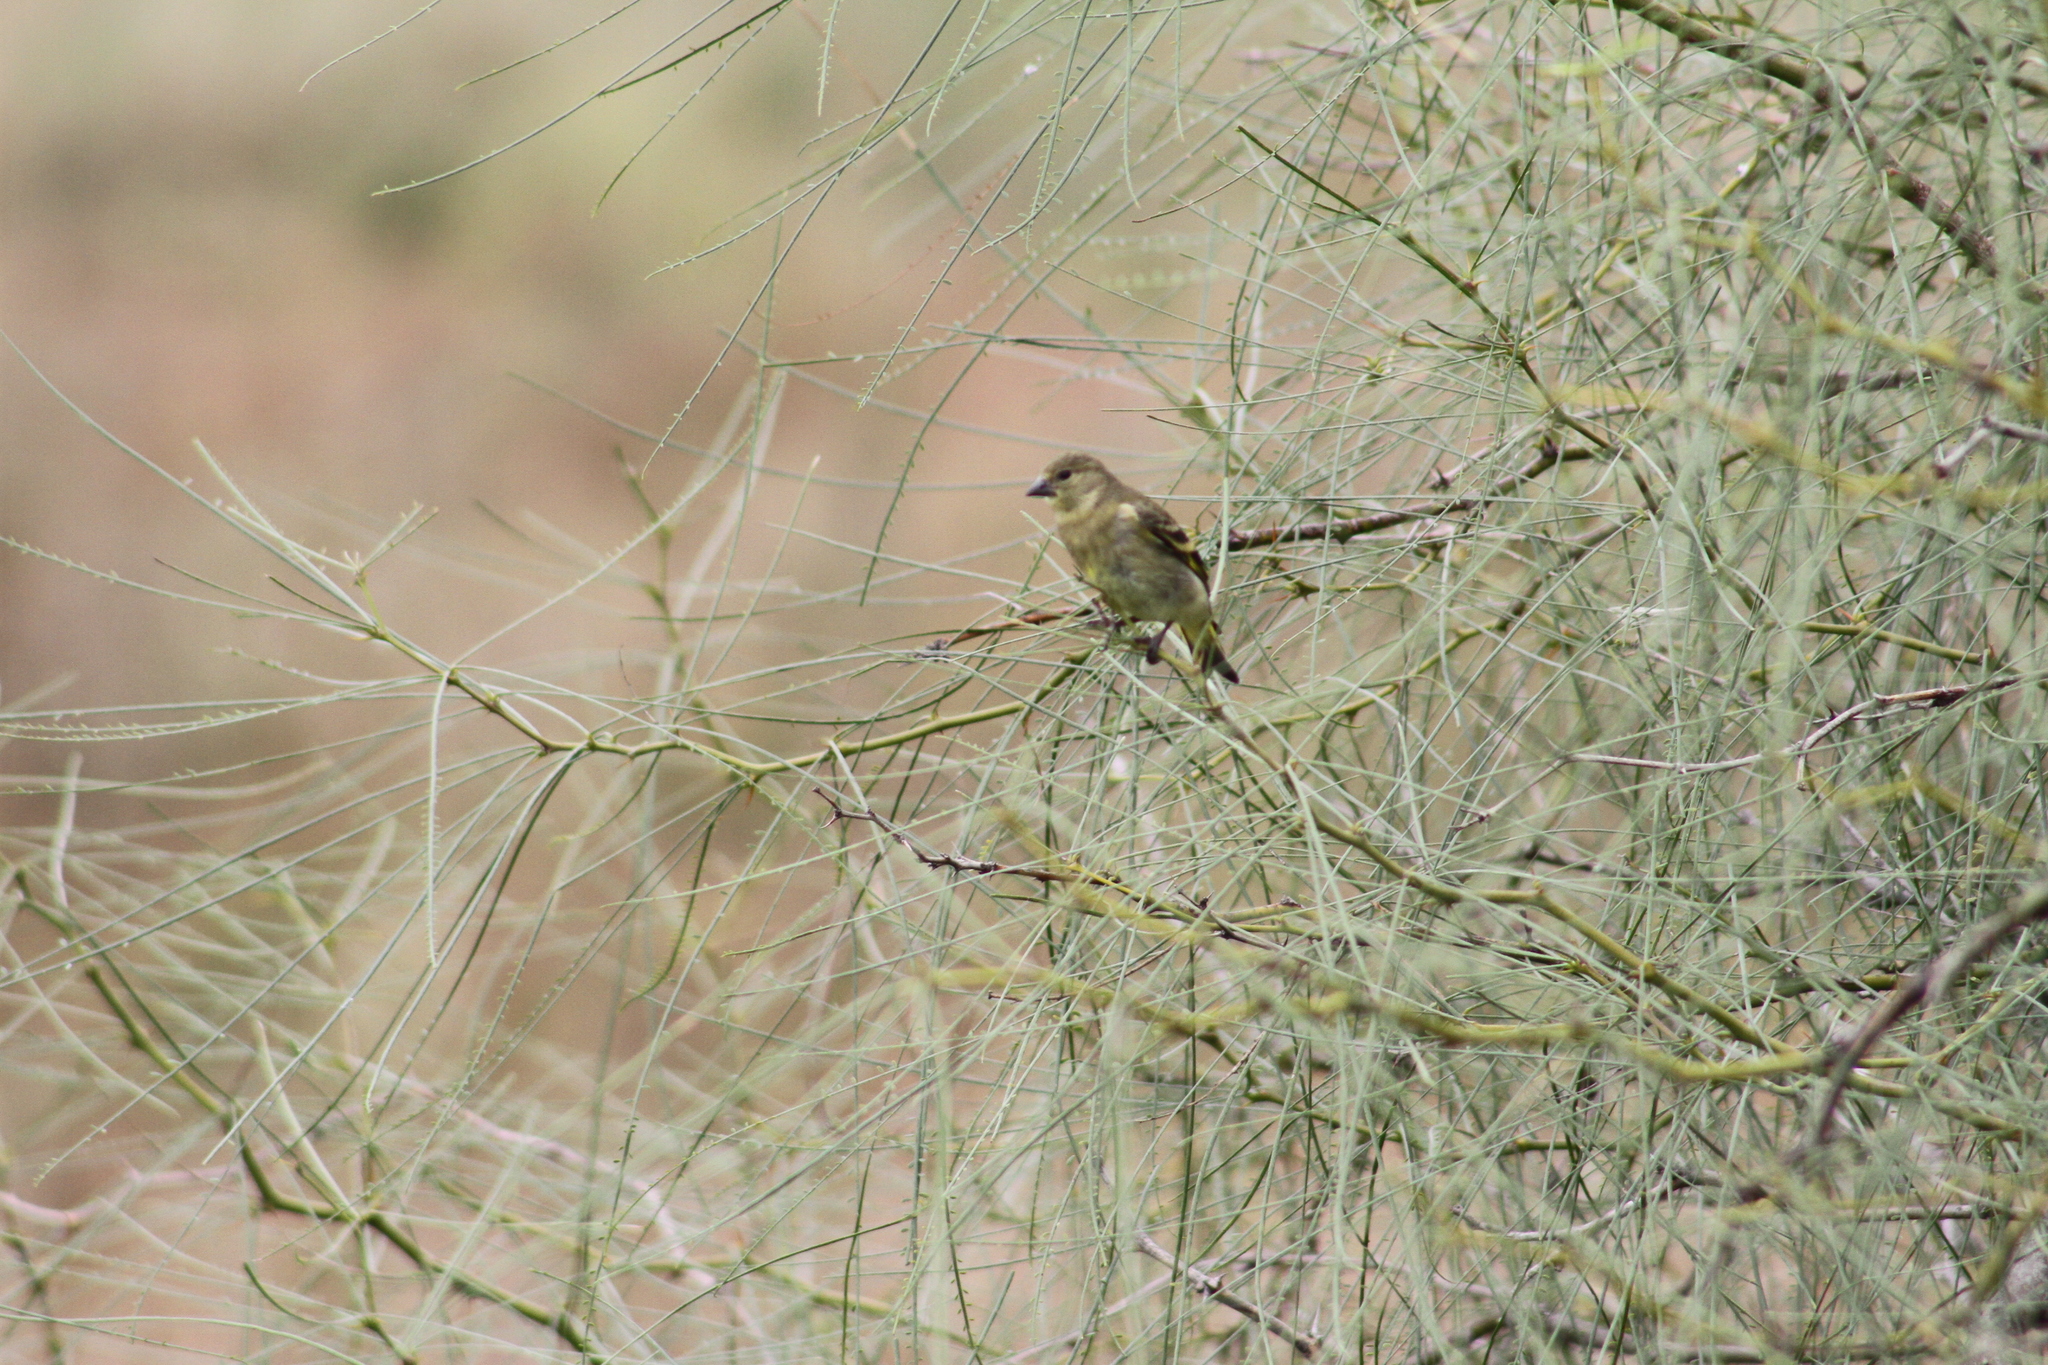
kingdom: Animalia
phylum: Chordata
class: Aves
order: Passeriformes
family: Fringillidae
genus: Spinus
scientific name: Spinus magellanicus
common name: Hooded siskin
